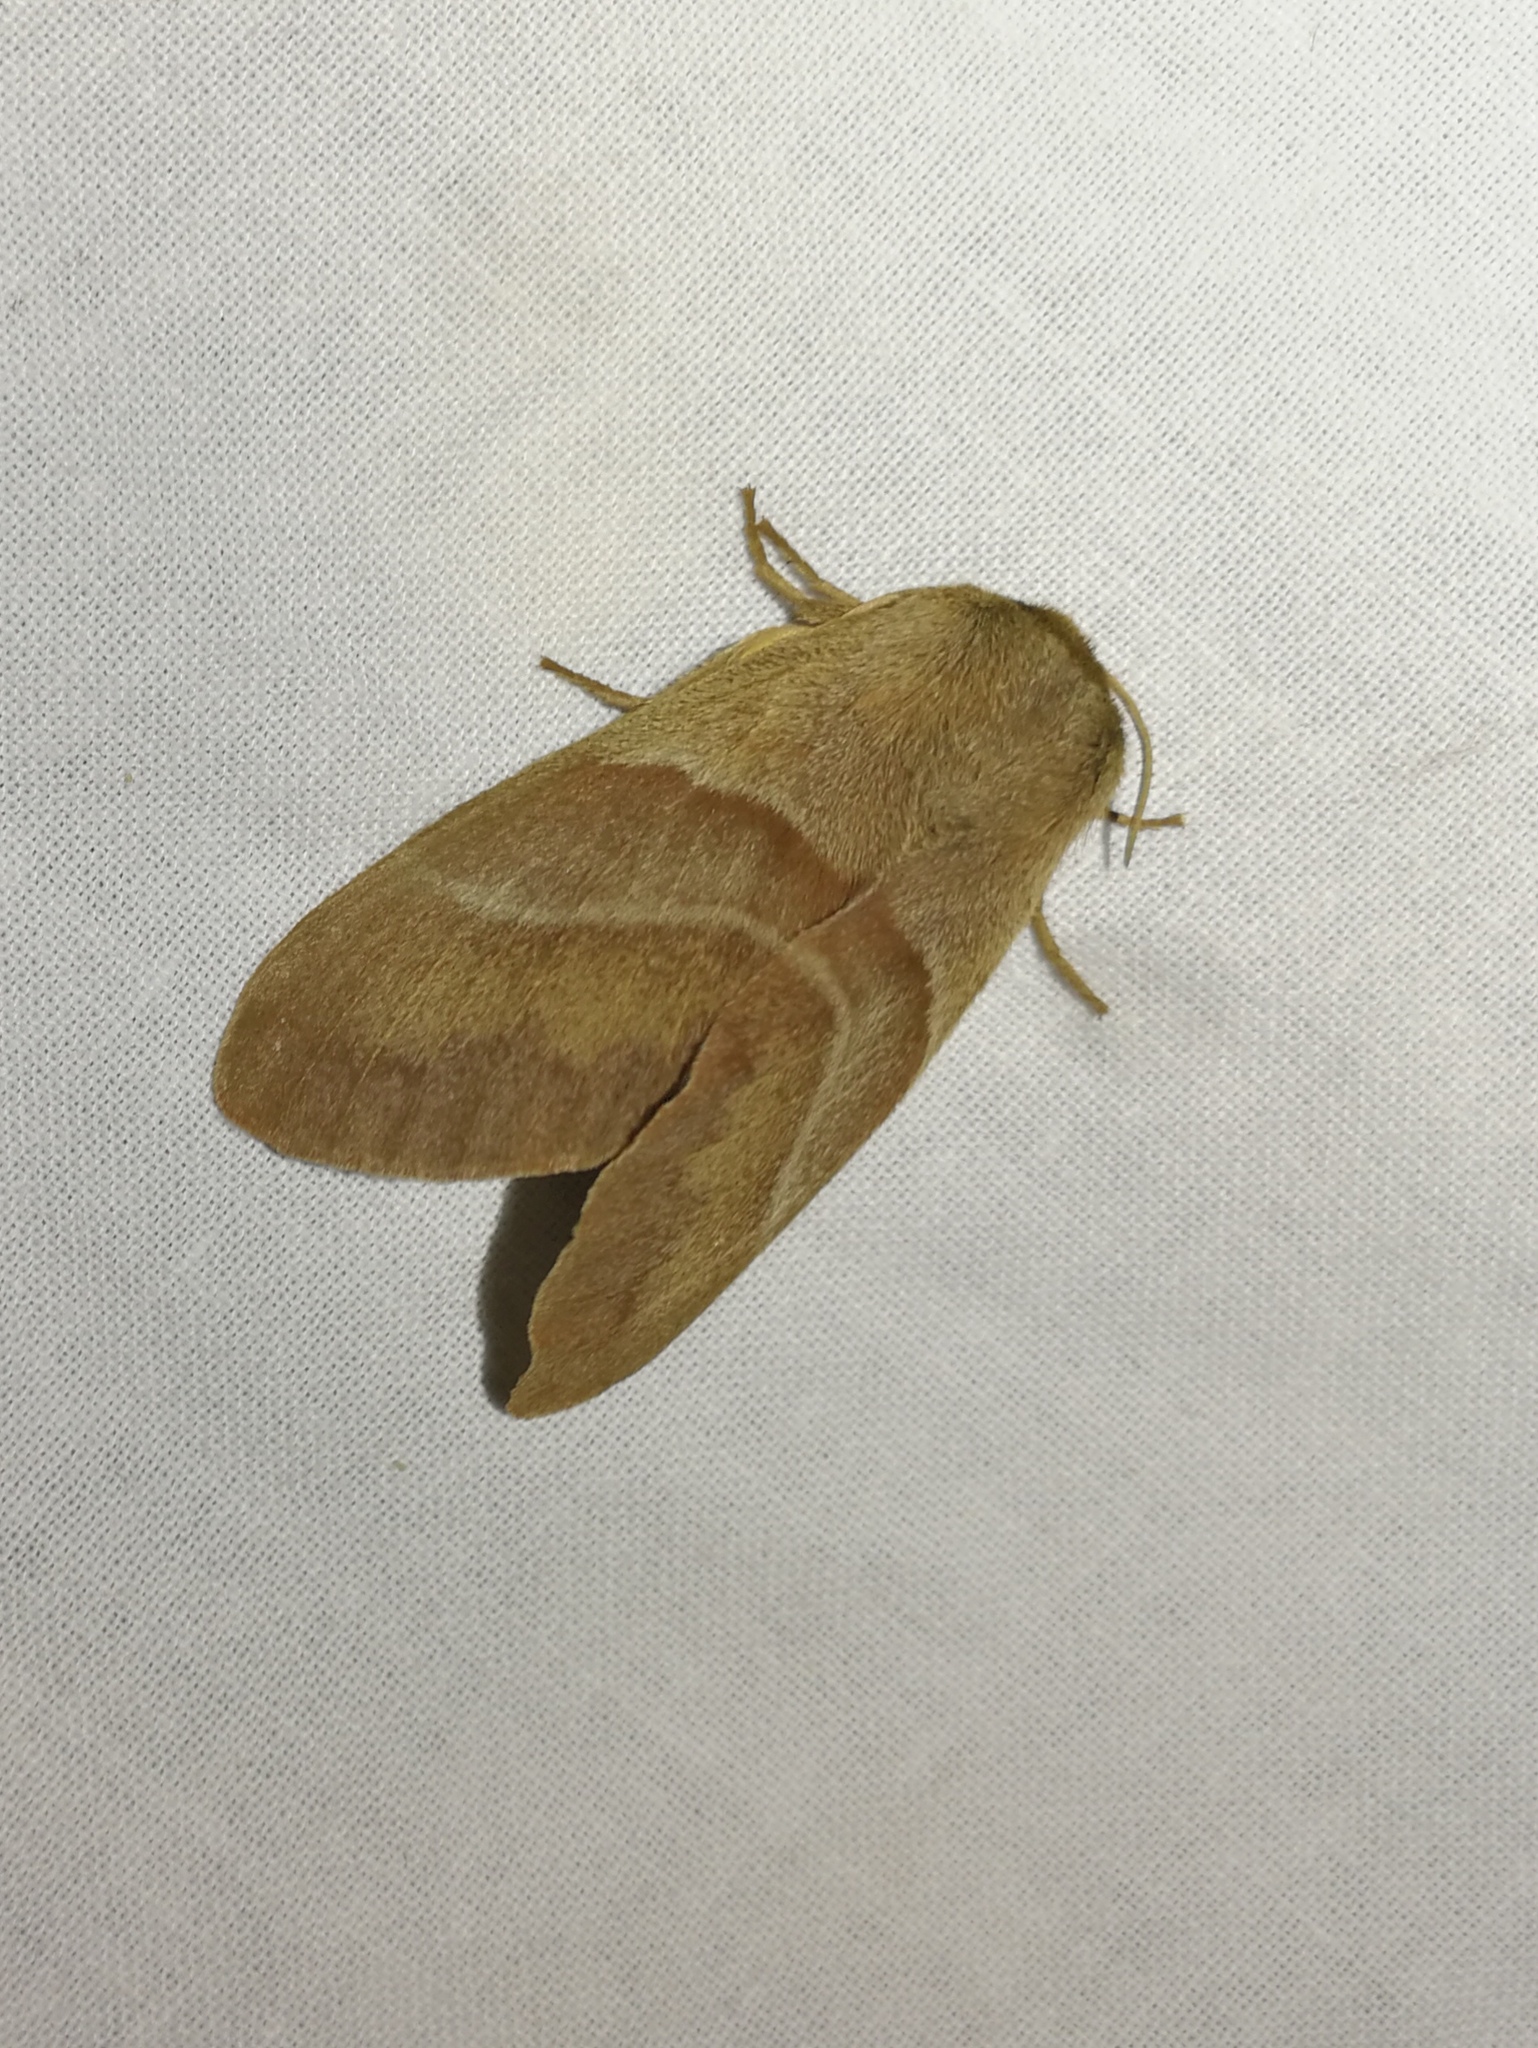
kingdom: Animalia
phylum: Arthropoda
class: Insecta
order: Lepidoptera
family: Lasiocampidae
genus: Macrothylacia
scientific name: Macrothylacia rubi
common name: Fox moth
